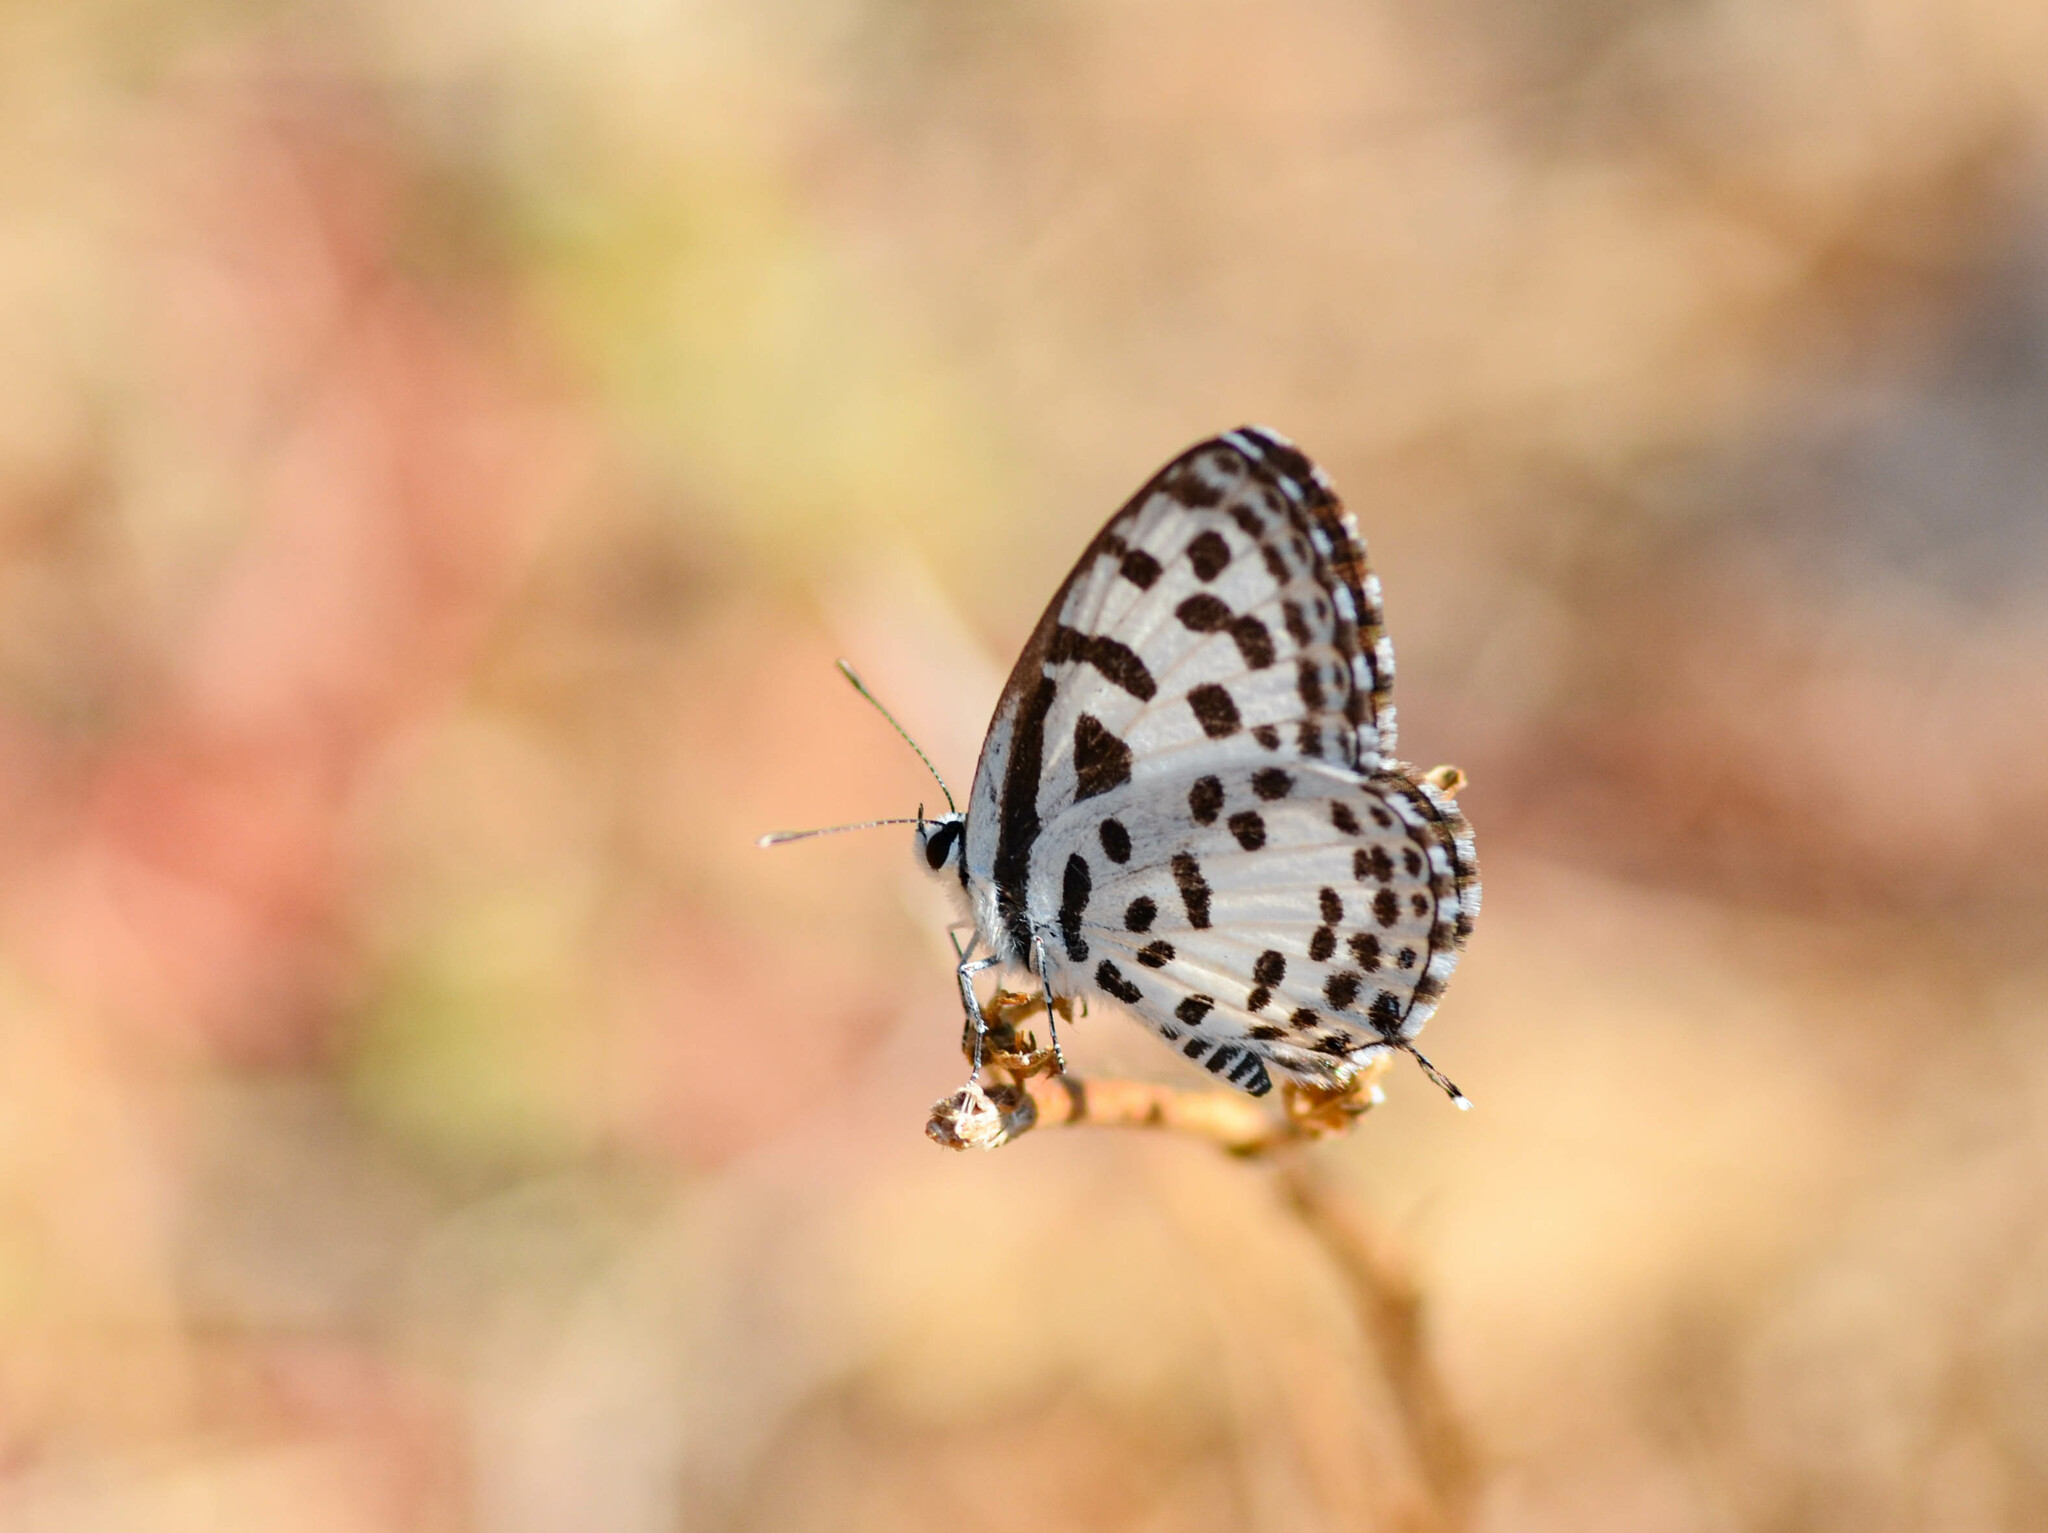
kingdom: Animalia
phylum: Arthropoda
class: Insecta
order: Lepidoptera
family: Lycaenidae
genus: Castalius
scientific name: Castalius rosimon
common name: Common pierrot
